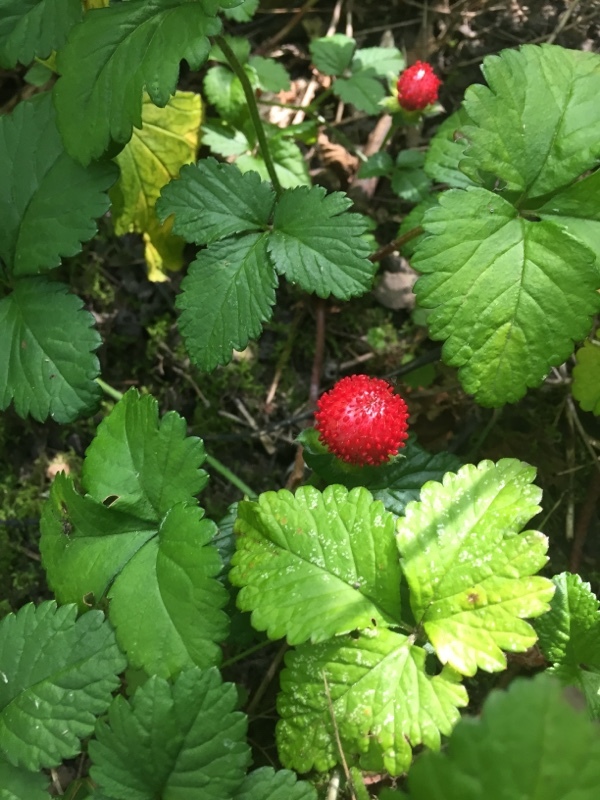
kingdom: Plantae
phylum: Tracheophyta
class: Magnoliopsida
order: Rosales
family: Rosaceae
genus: Potentilla
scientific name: Potentilla indica
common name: Yellow-flowered strawberry
